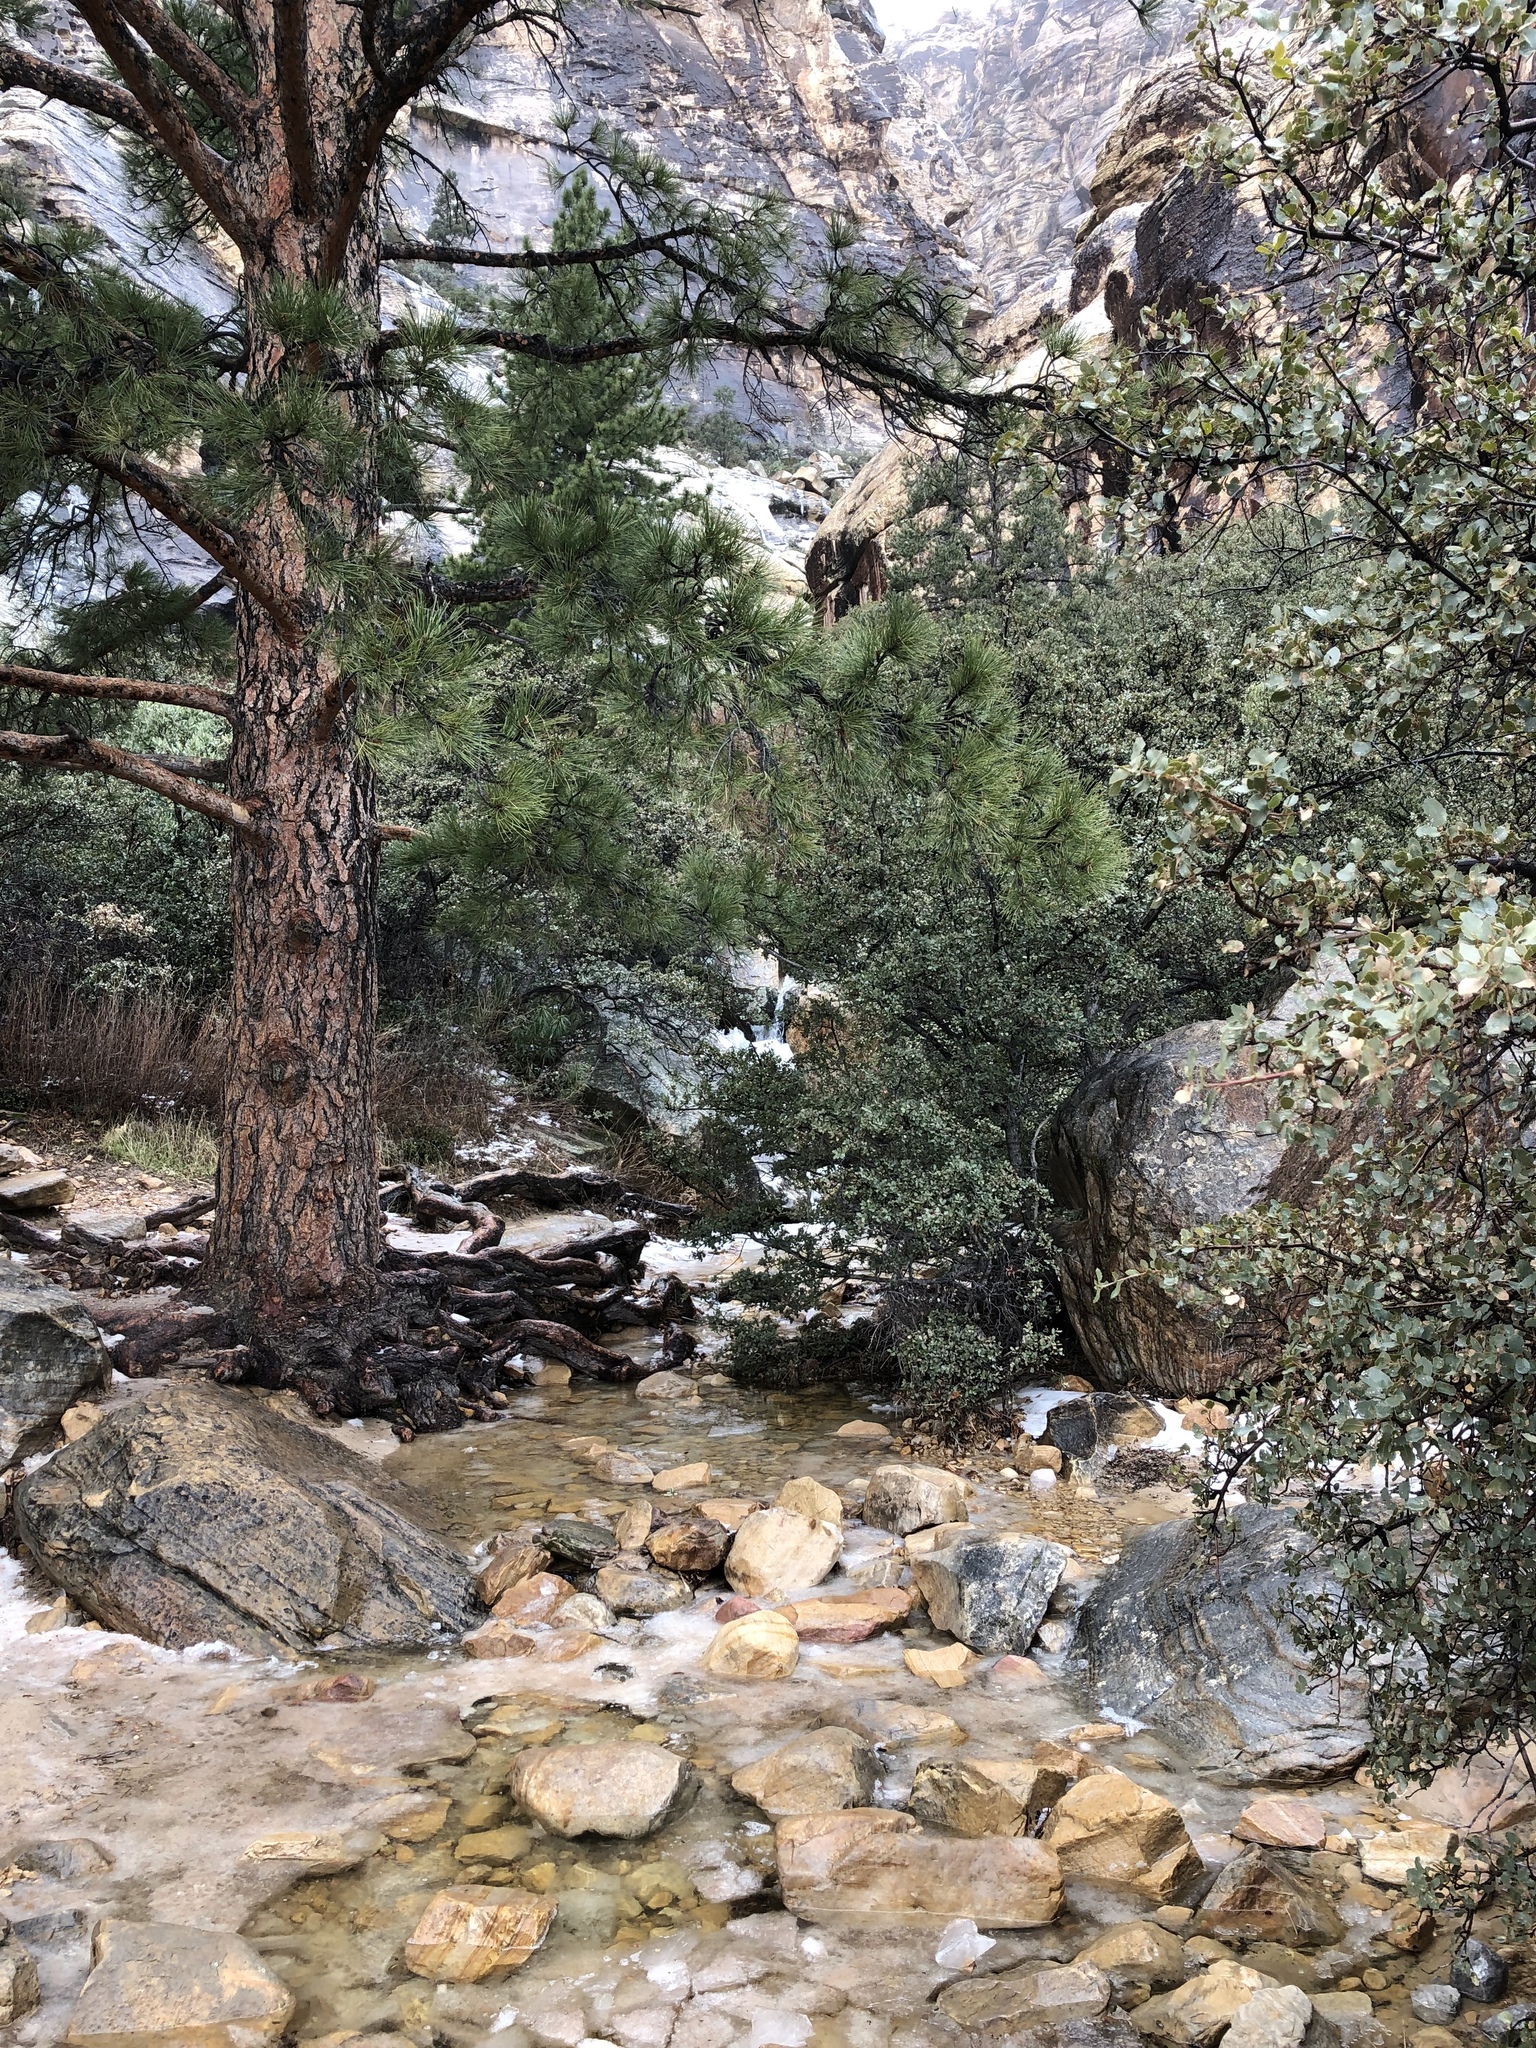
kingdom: Plantae
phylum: Tracheophyta
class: Pinopsida
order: Pinales
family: Pinaceae
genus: Pinus
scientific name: Pinus ponderosa
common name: Western yellow-pine
